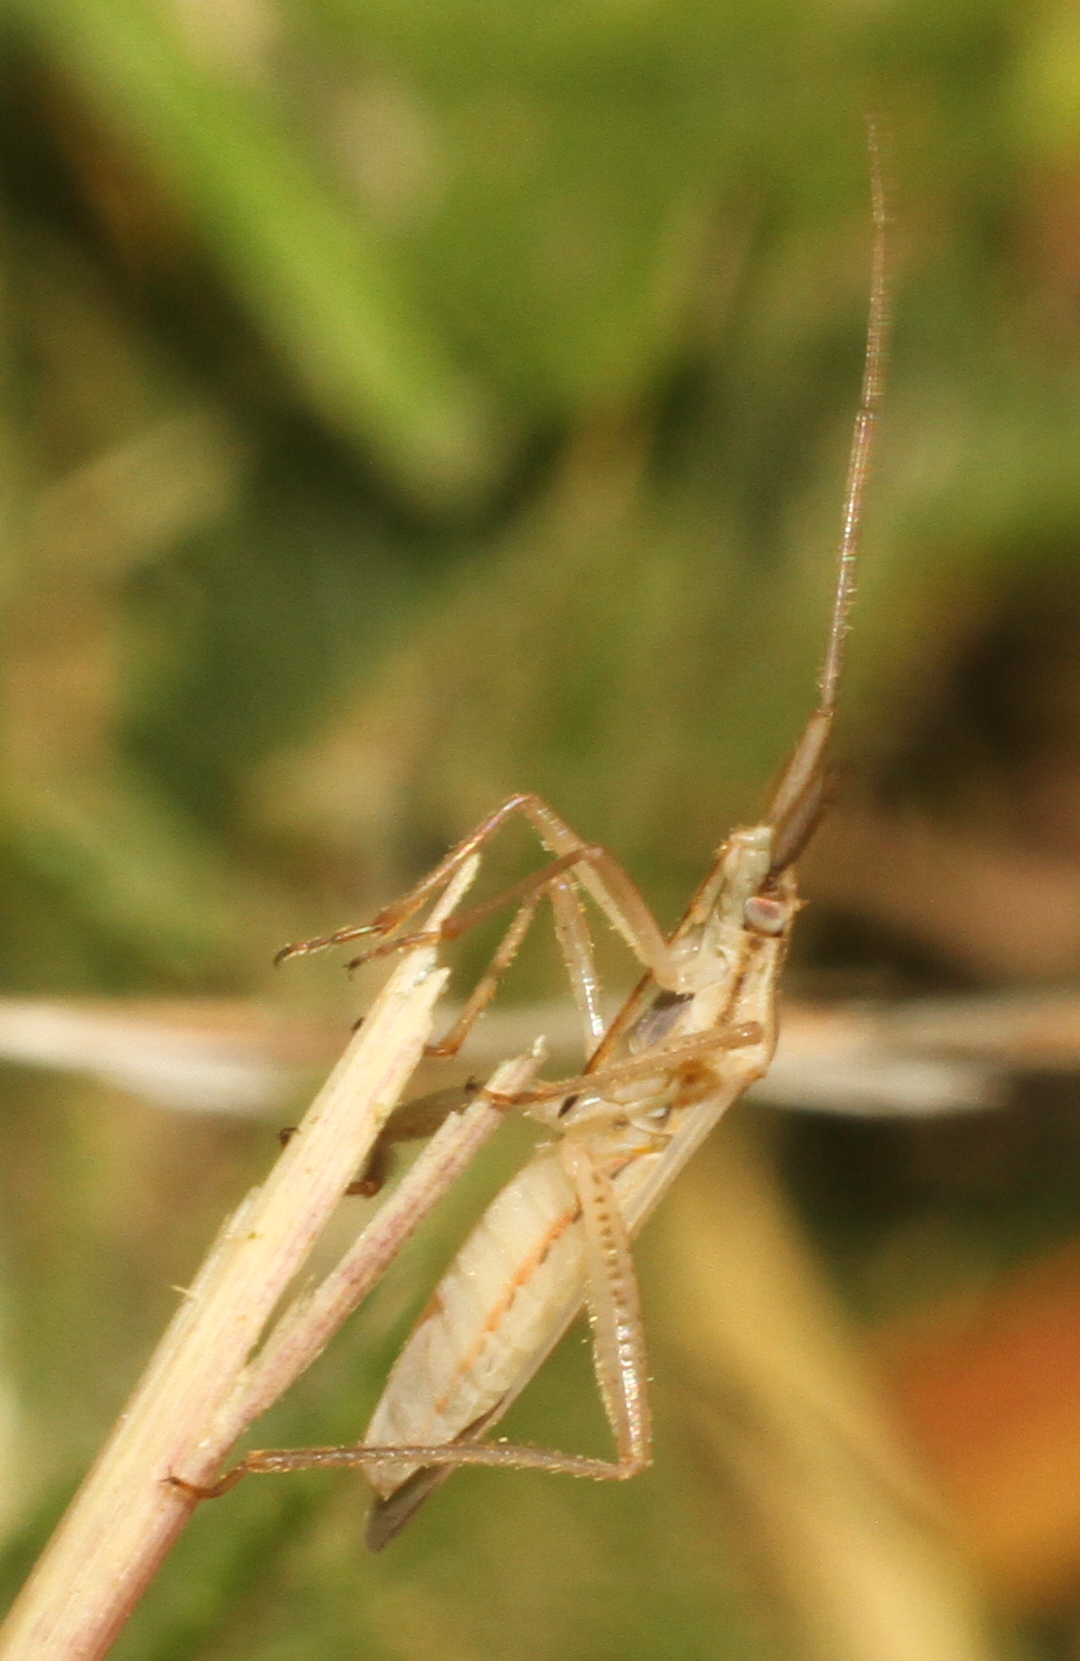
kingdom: Animalia
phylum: Arthropoda
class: Insecta
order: Hemiptera
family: Miridae
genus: Stenodema
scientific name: Stenodema laevigata
